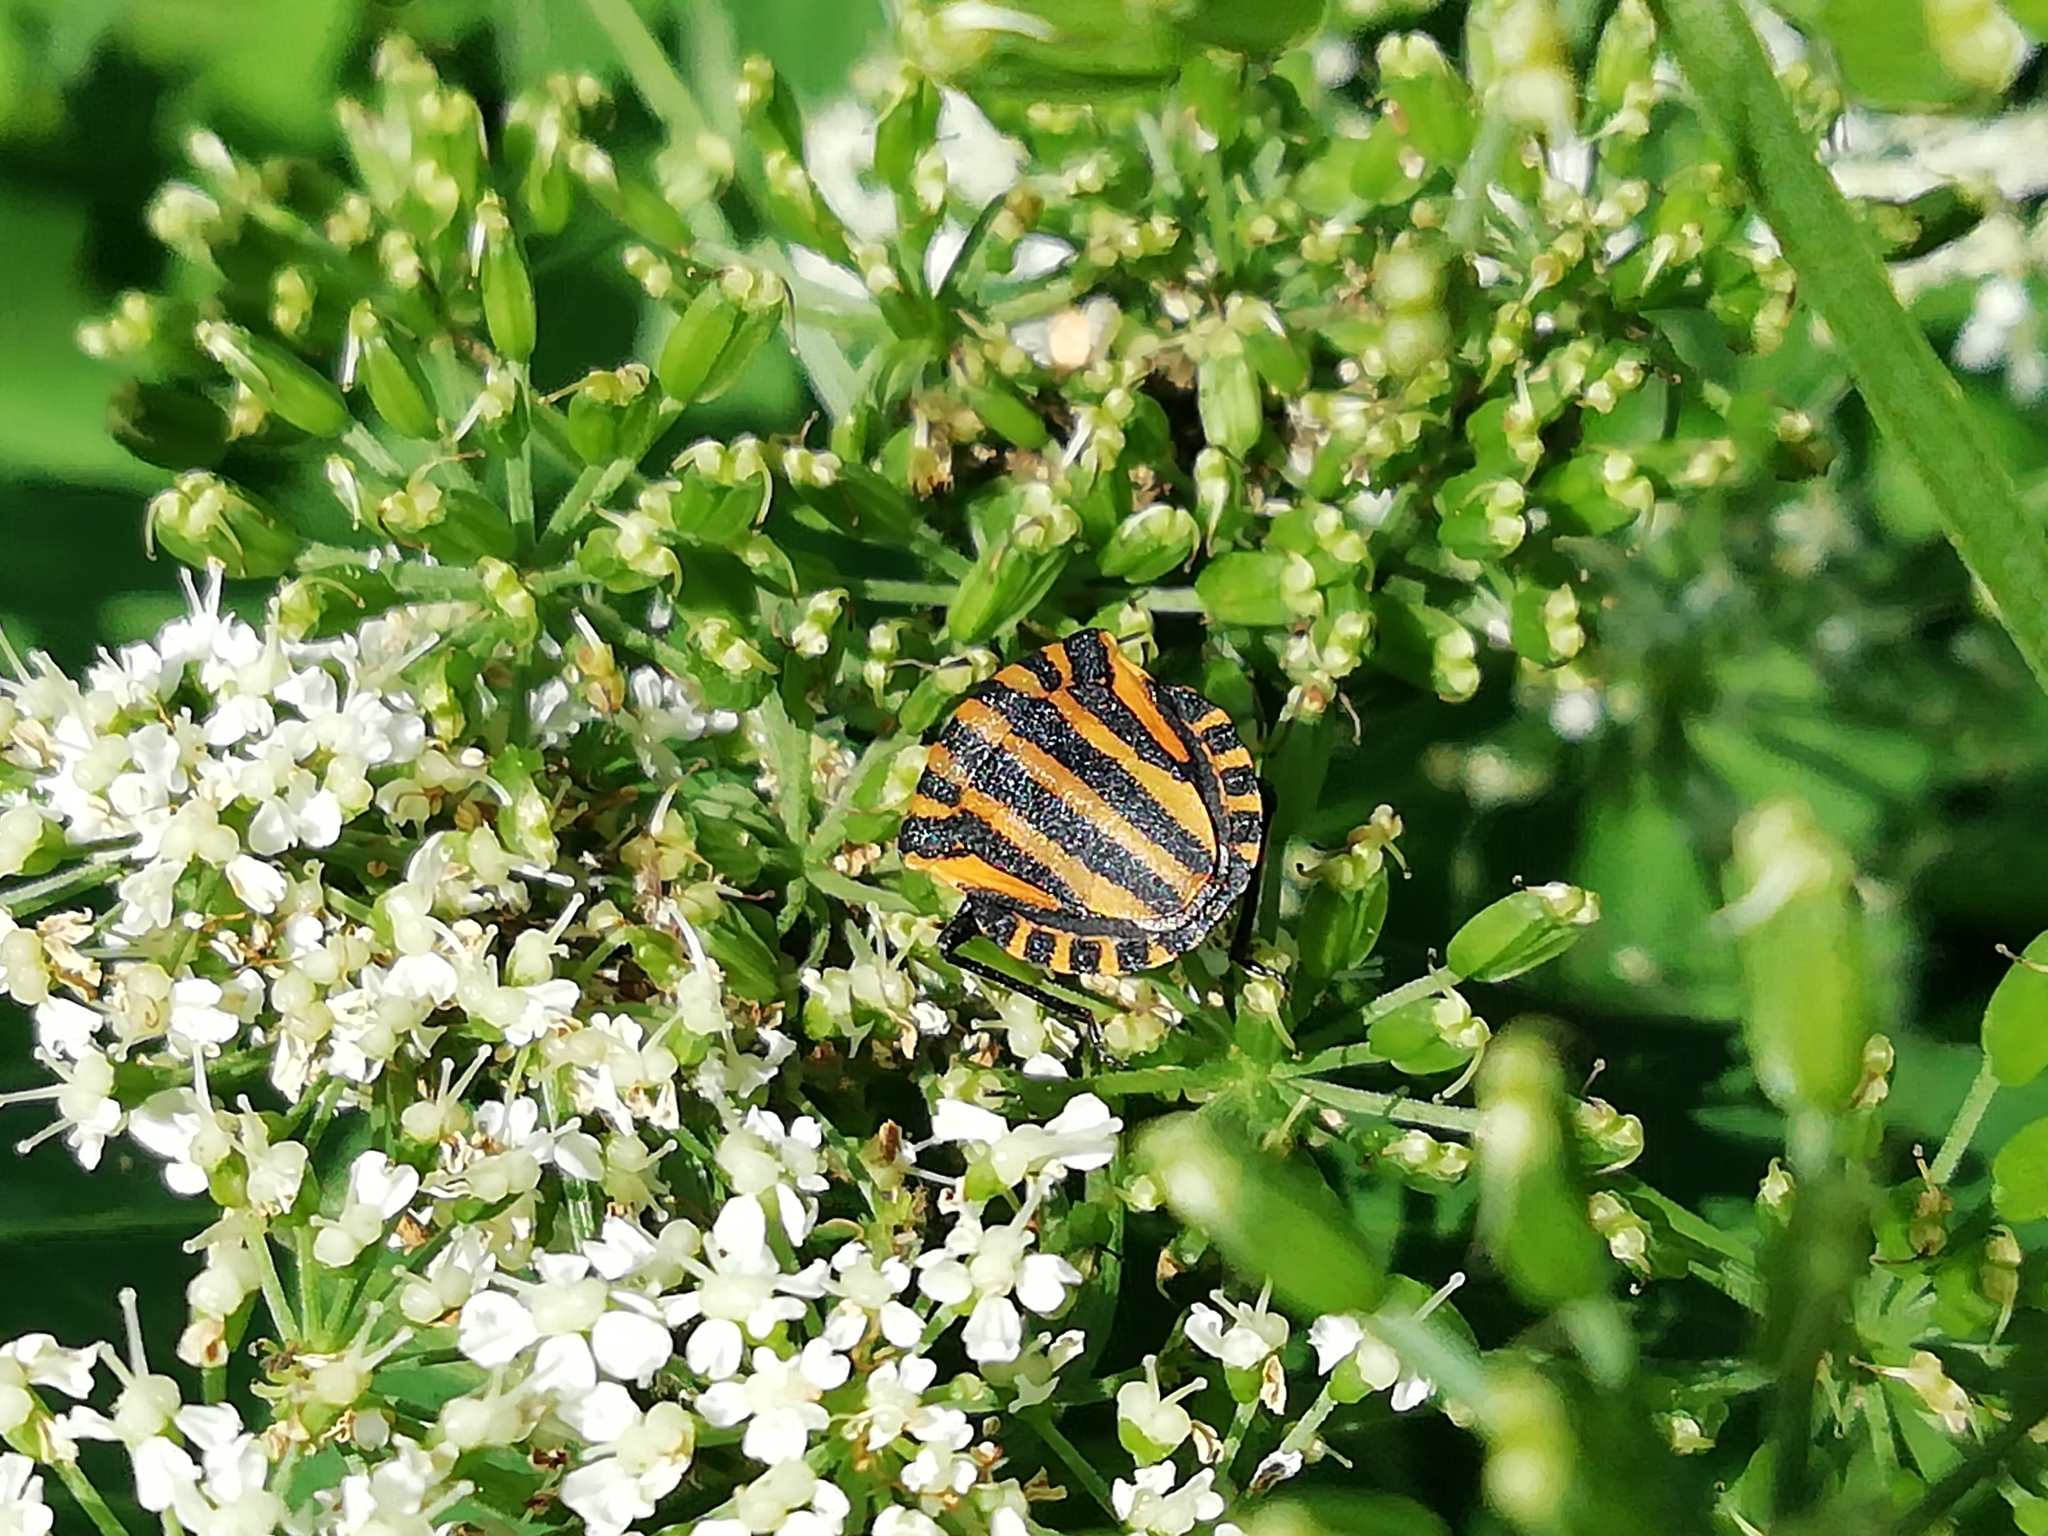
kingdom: Animalia
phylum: Arthropoda
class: Insecta
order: Hemiptera
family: Pentatomidae
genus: Graphosoma
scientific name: Graphosoma italicum
